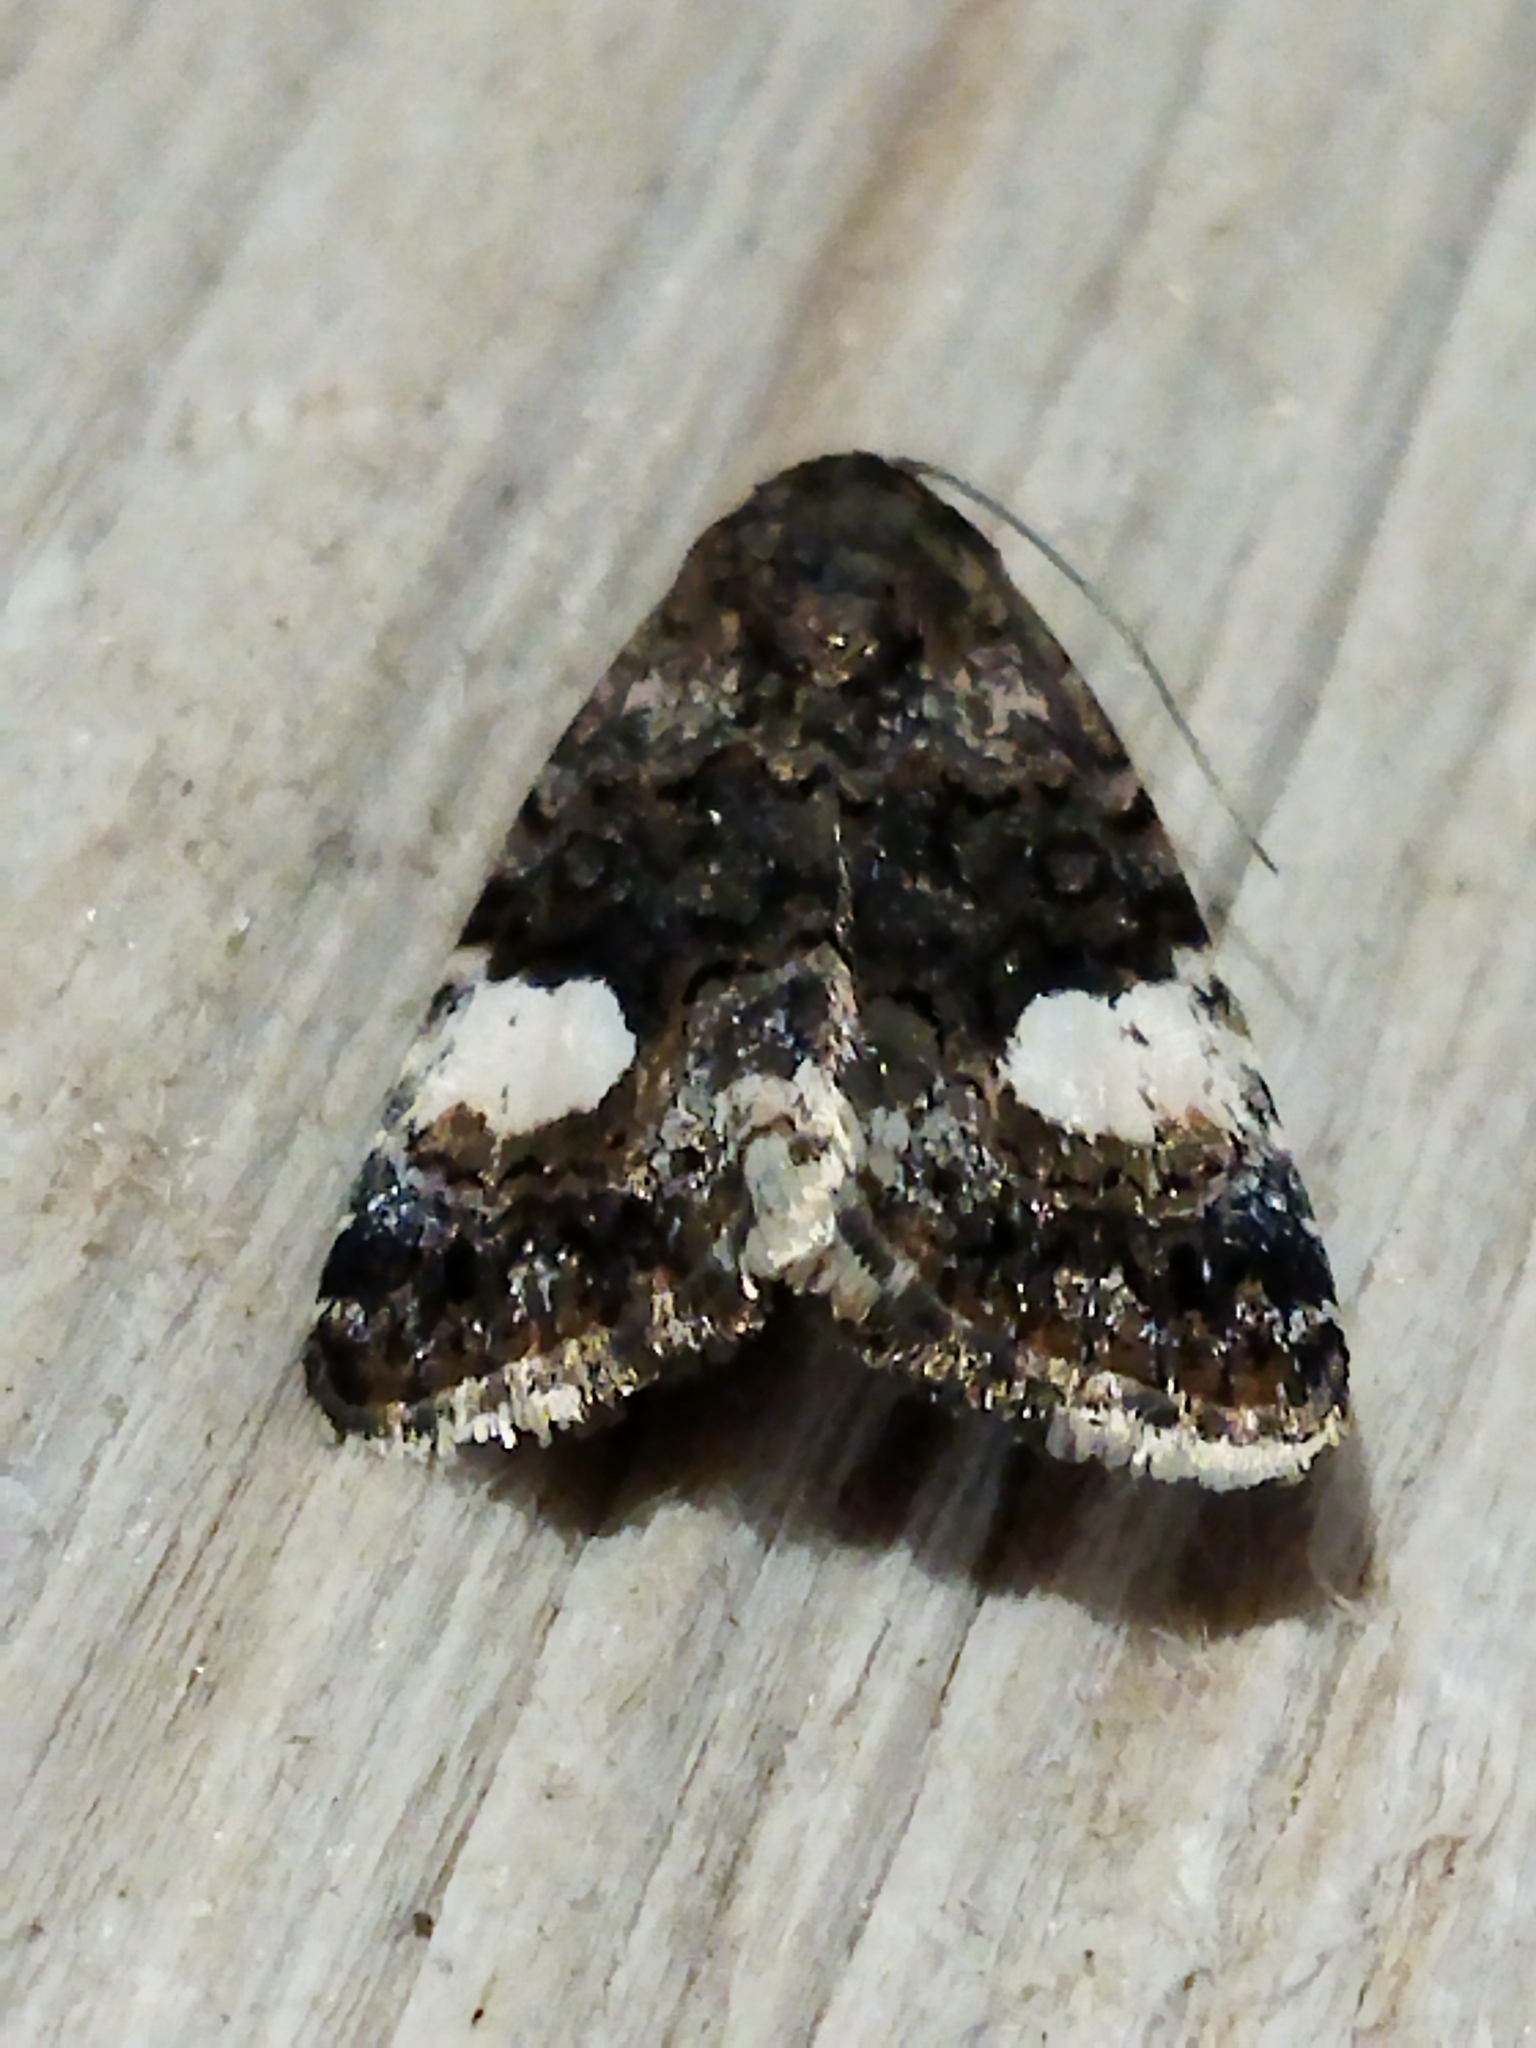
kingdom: Animalia
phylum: Arthropoda
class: Insecta
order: Lepidoptera
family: Erebidae
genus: Tyta
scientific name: Tyta luctuosa
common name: Four-spotted
